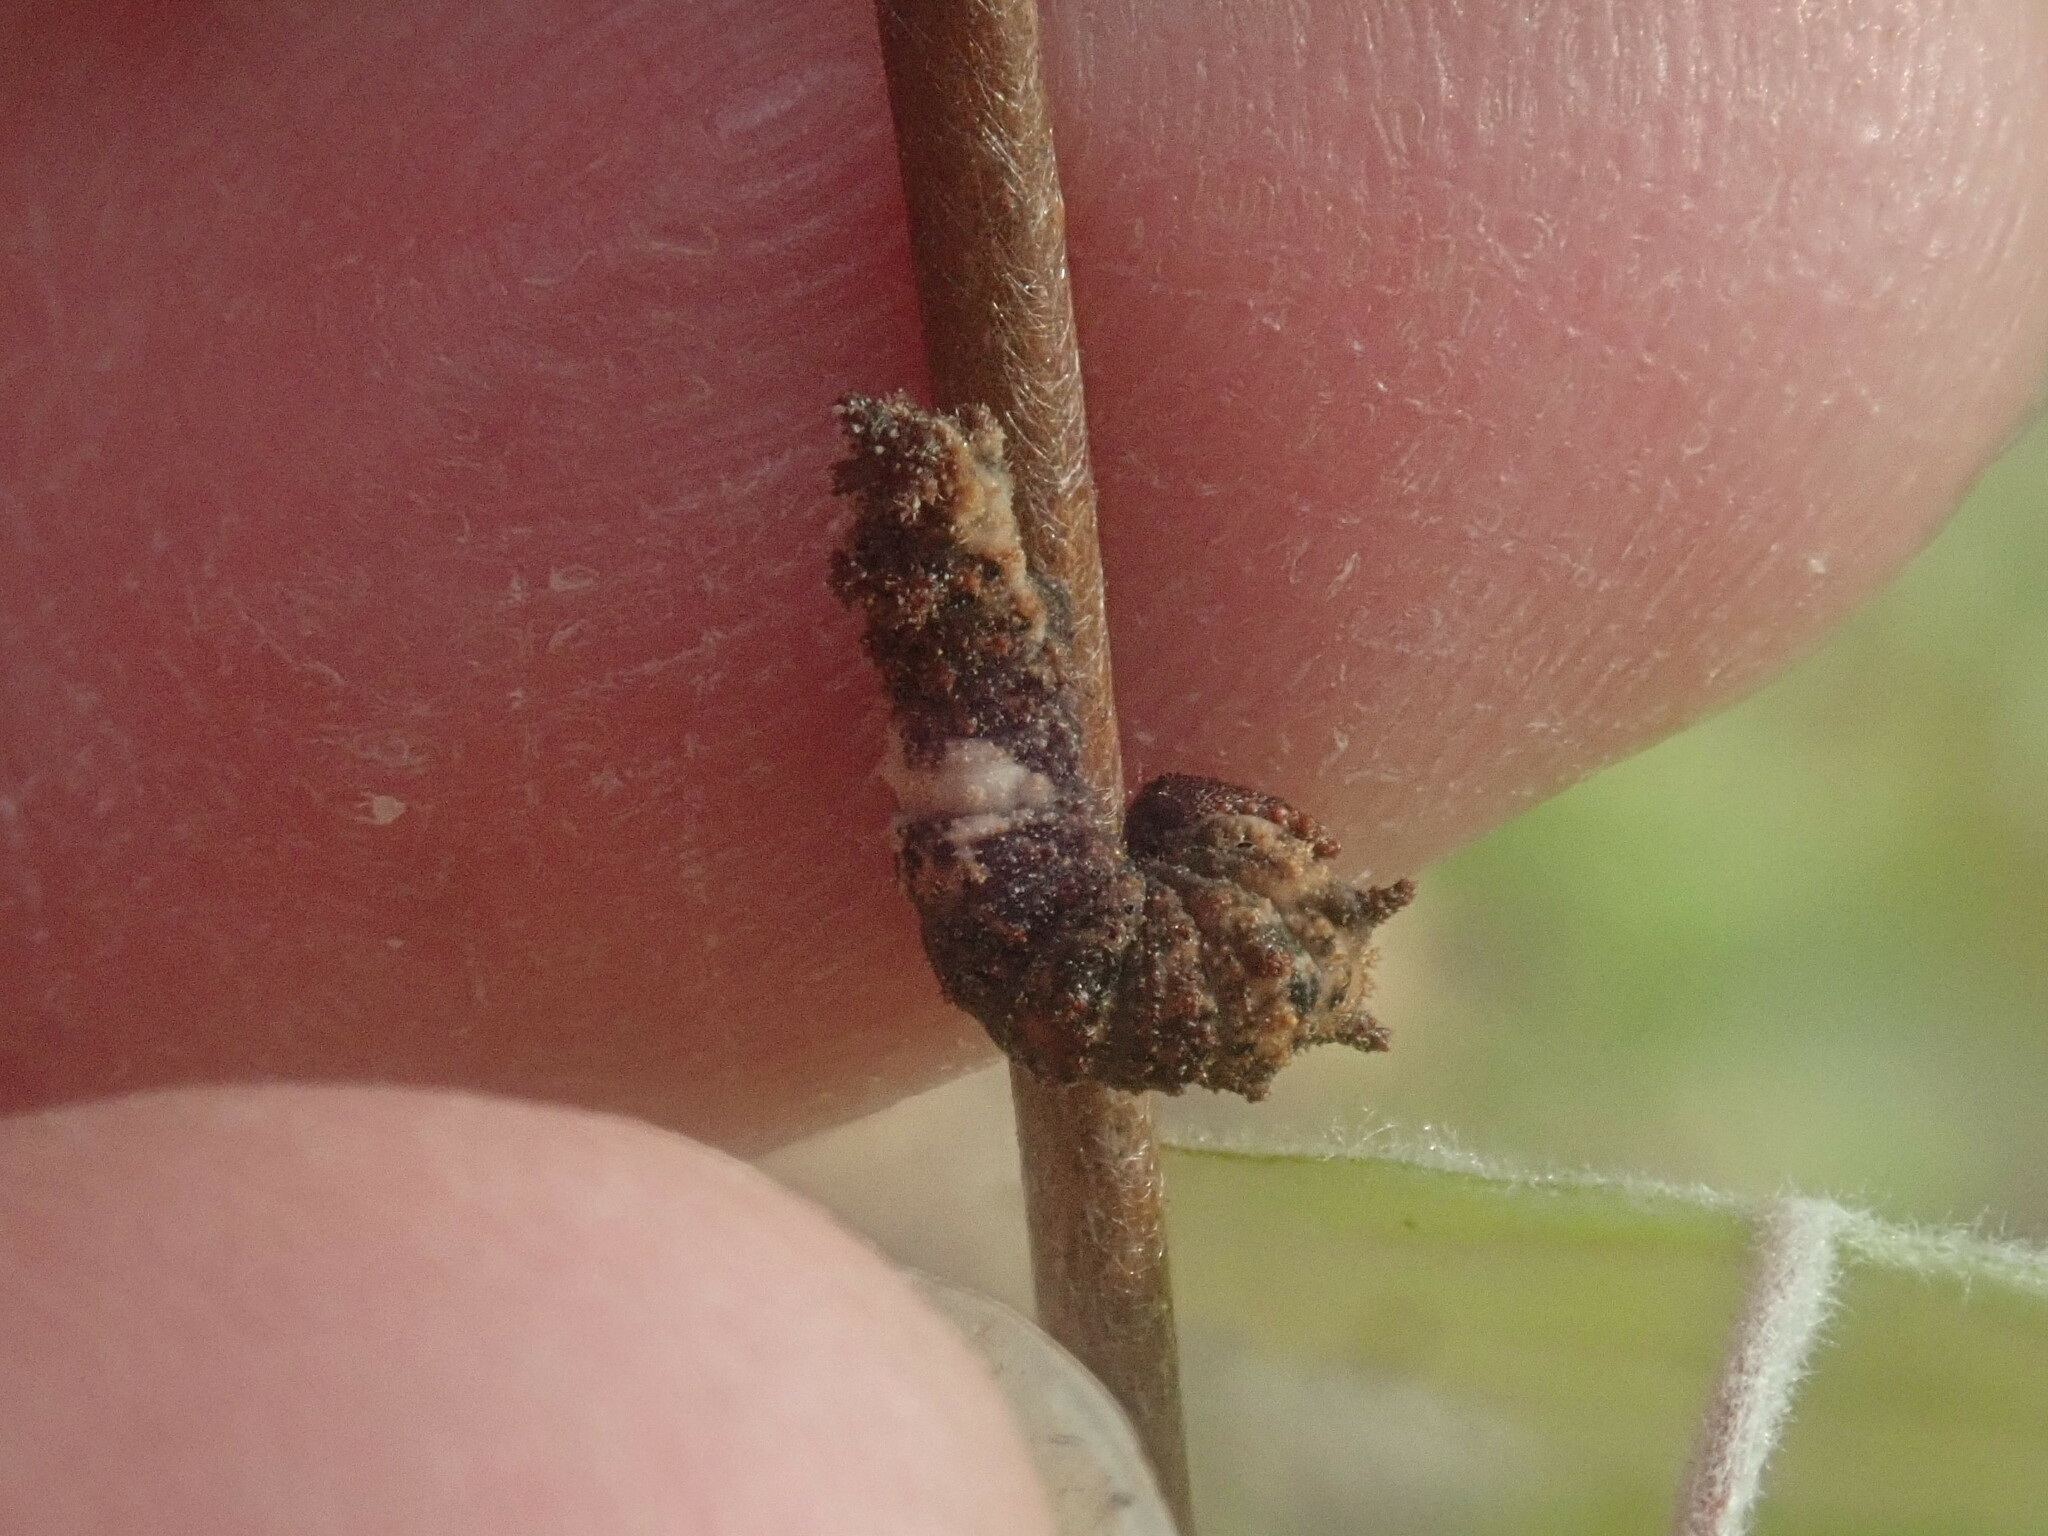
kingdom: Animalia
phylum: Arthropoda
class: Insecta
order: Lepidoptera
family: Nymphalidae
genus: Limenitis
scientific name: Limenitis archippus
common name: Viceroy
